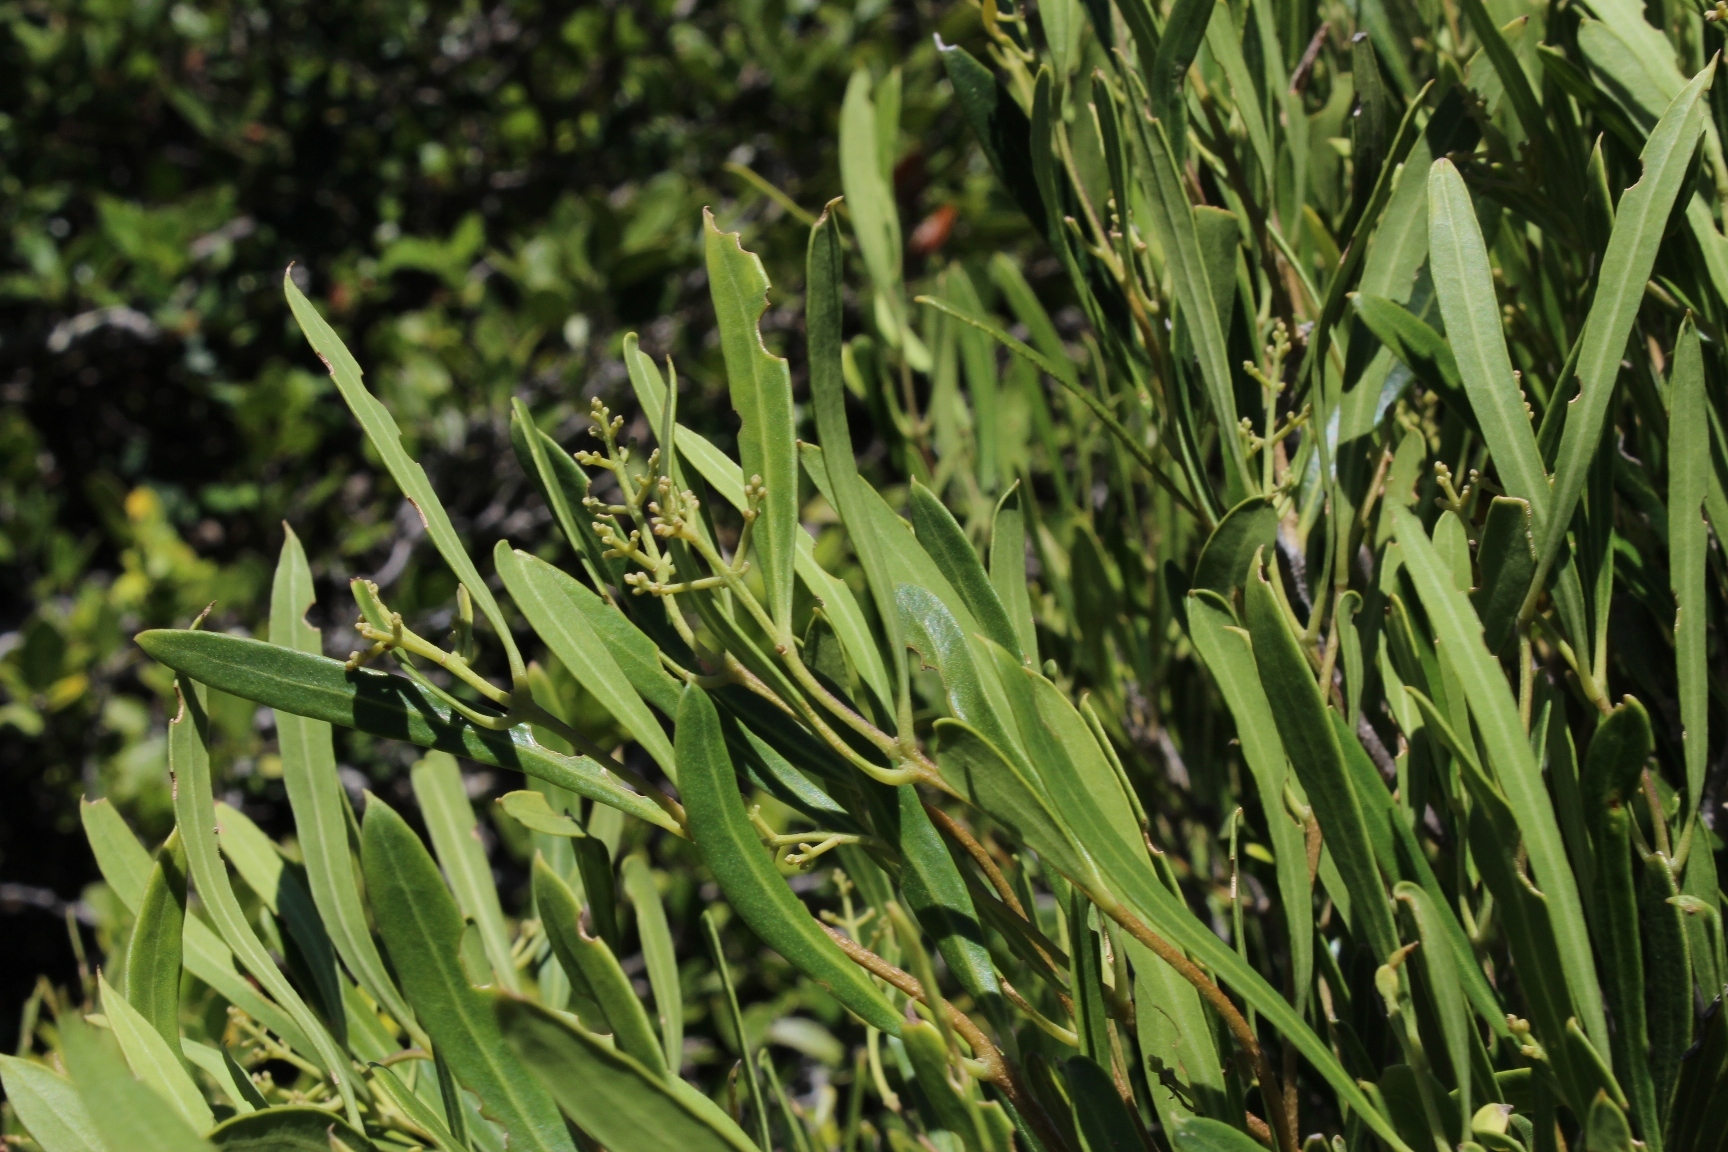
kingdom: Plantae
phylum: Tracheophyta
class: Magnoliopsida
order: Lamiales
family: Oleaceae
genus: Olea
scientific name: Olea exasperata
